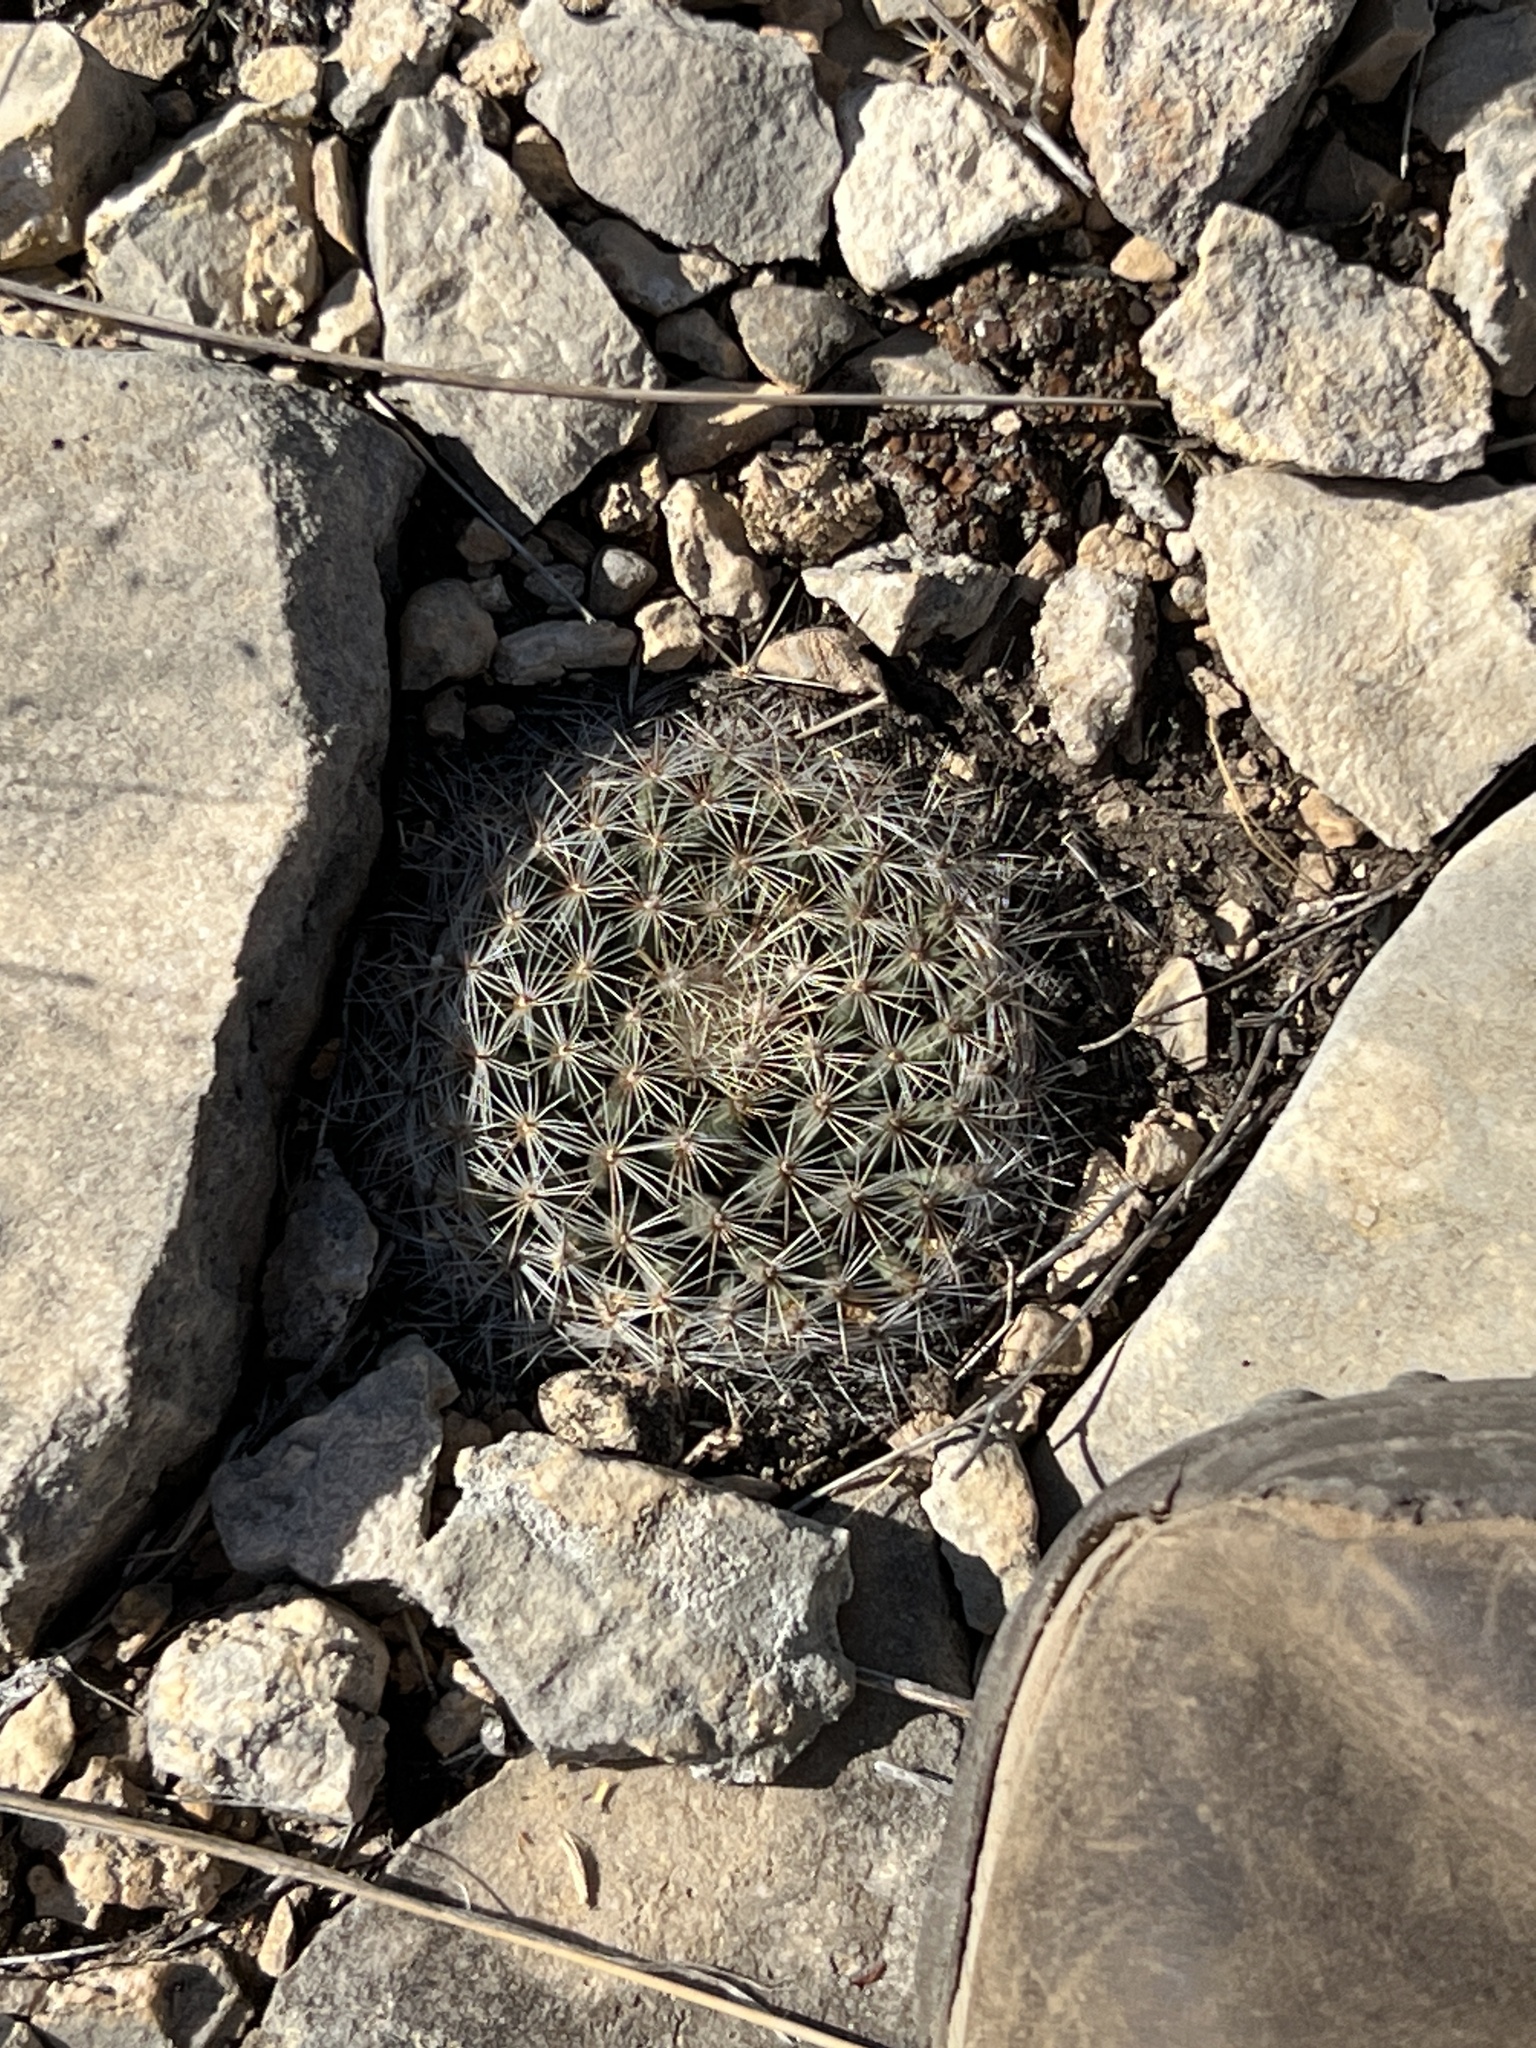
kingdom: Plantae
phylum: Tracheophyta
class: Magnoliopsida
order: Caryophyllales
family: Cactaceae
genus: Mammillaria
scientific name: Mammillaria heyderi
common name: Little nipple cactus
